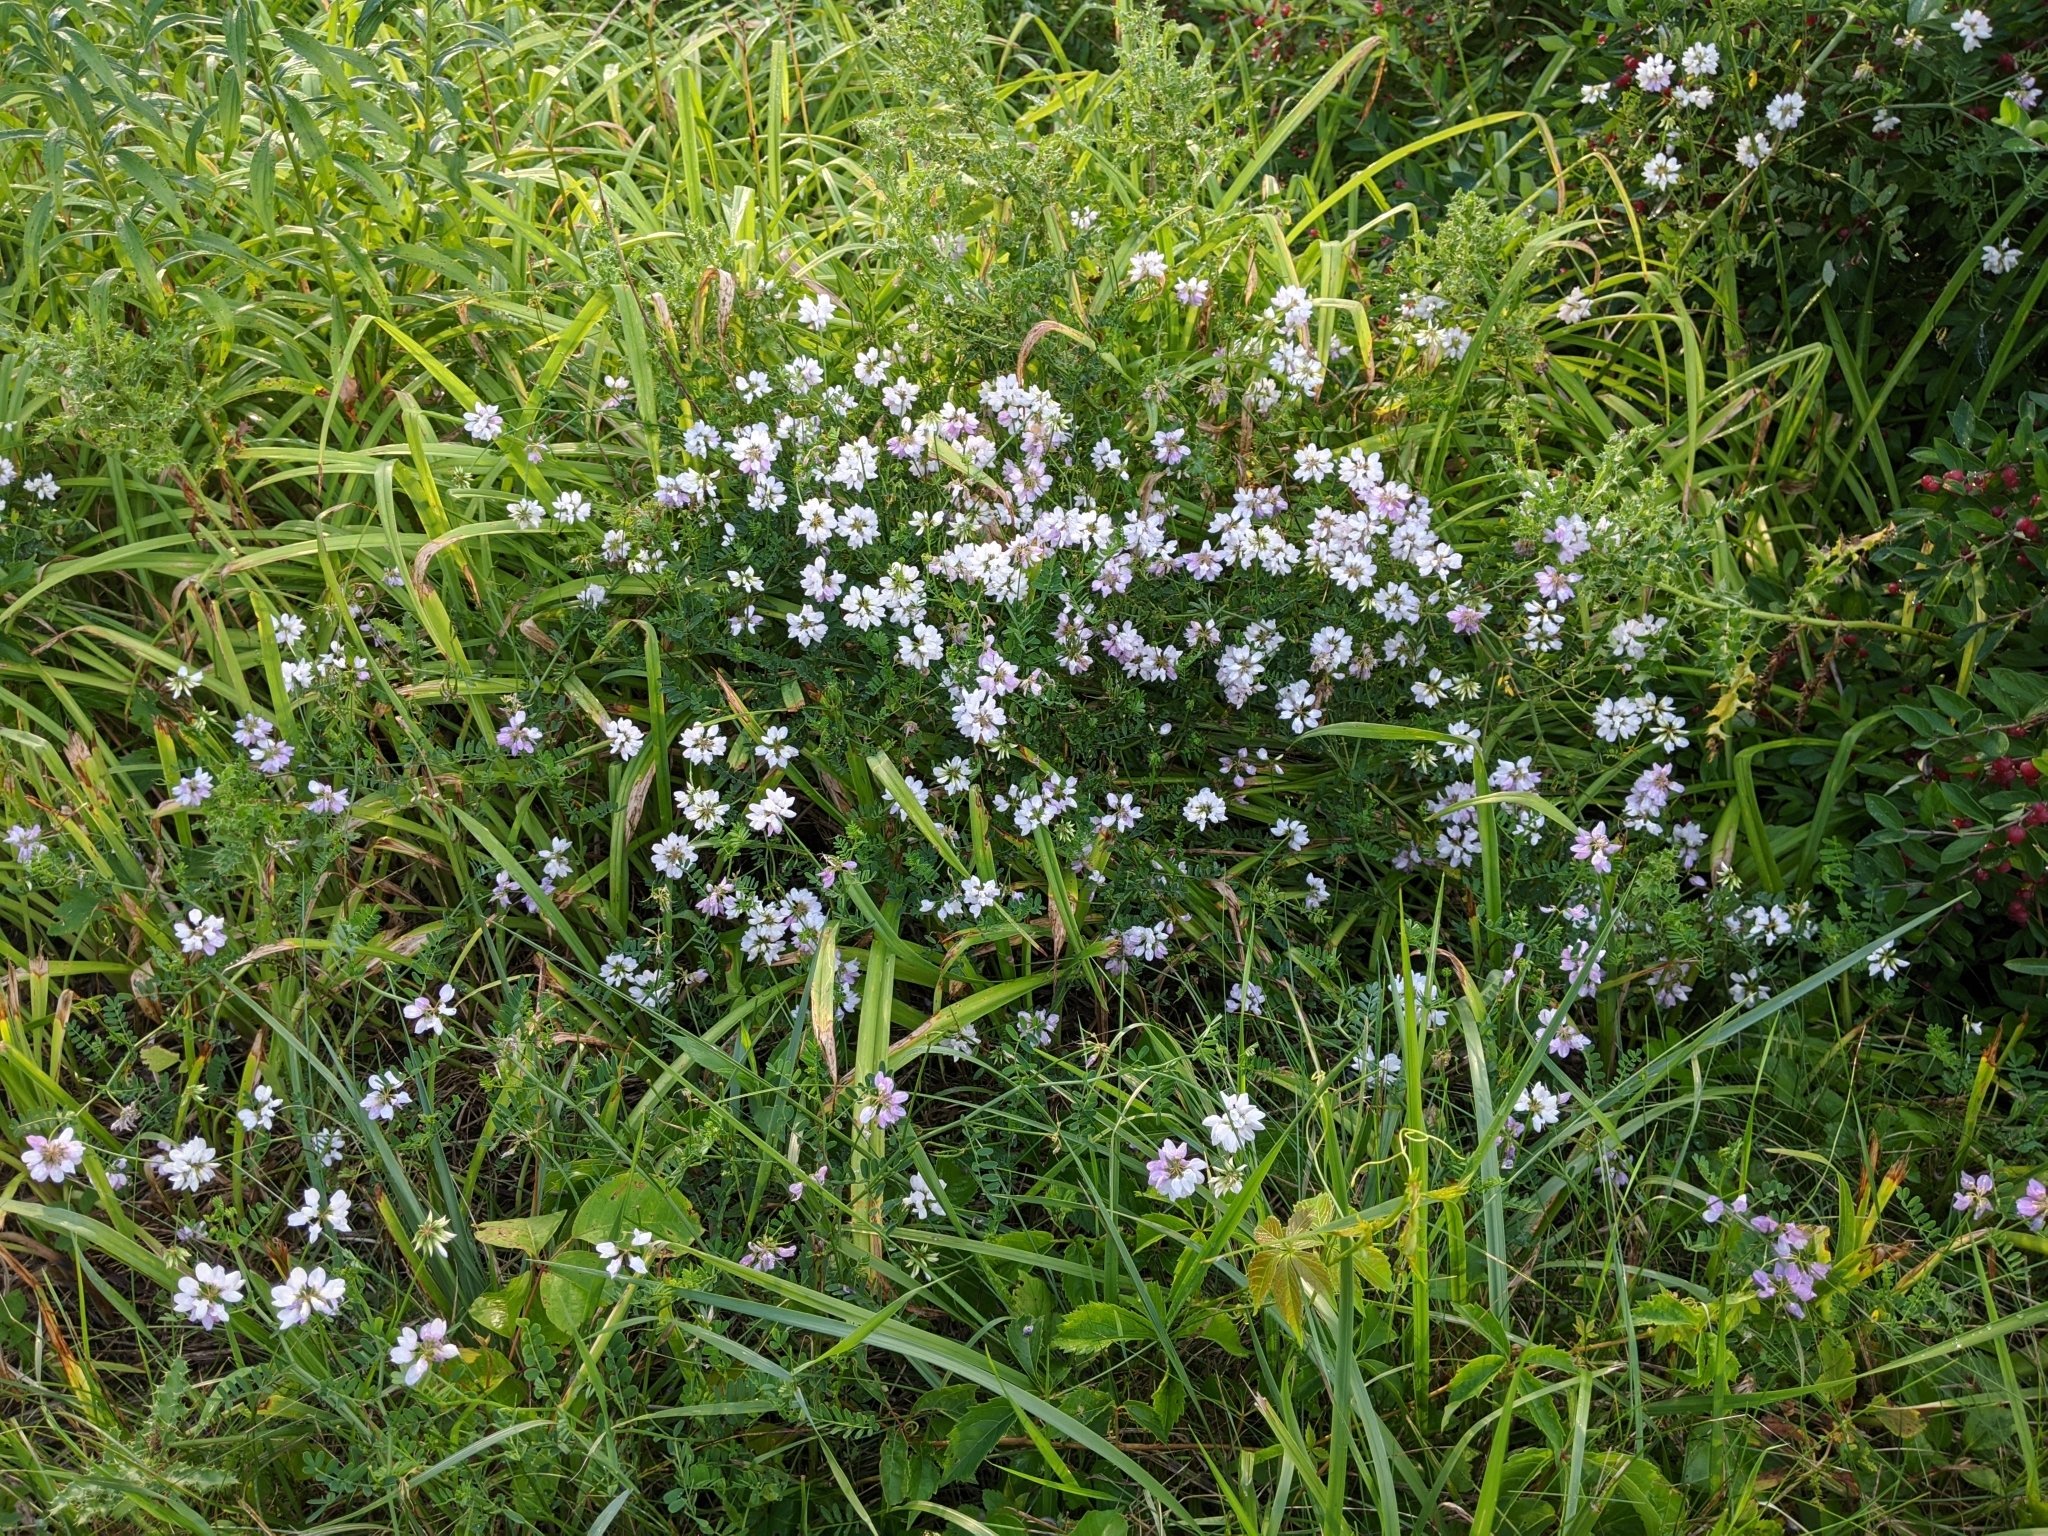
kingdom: Plantae
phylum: Tracheophyta
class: Magnoliopsida
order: Fabales
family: Fabaceae
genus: Coronilla
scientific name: Coronilla varia
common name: Crownvetch
